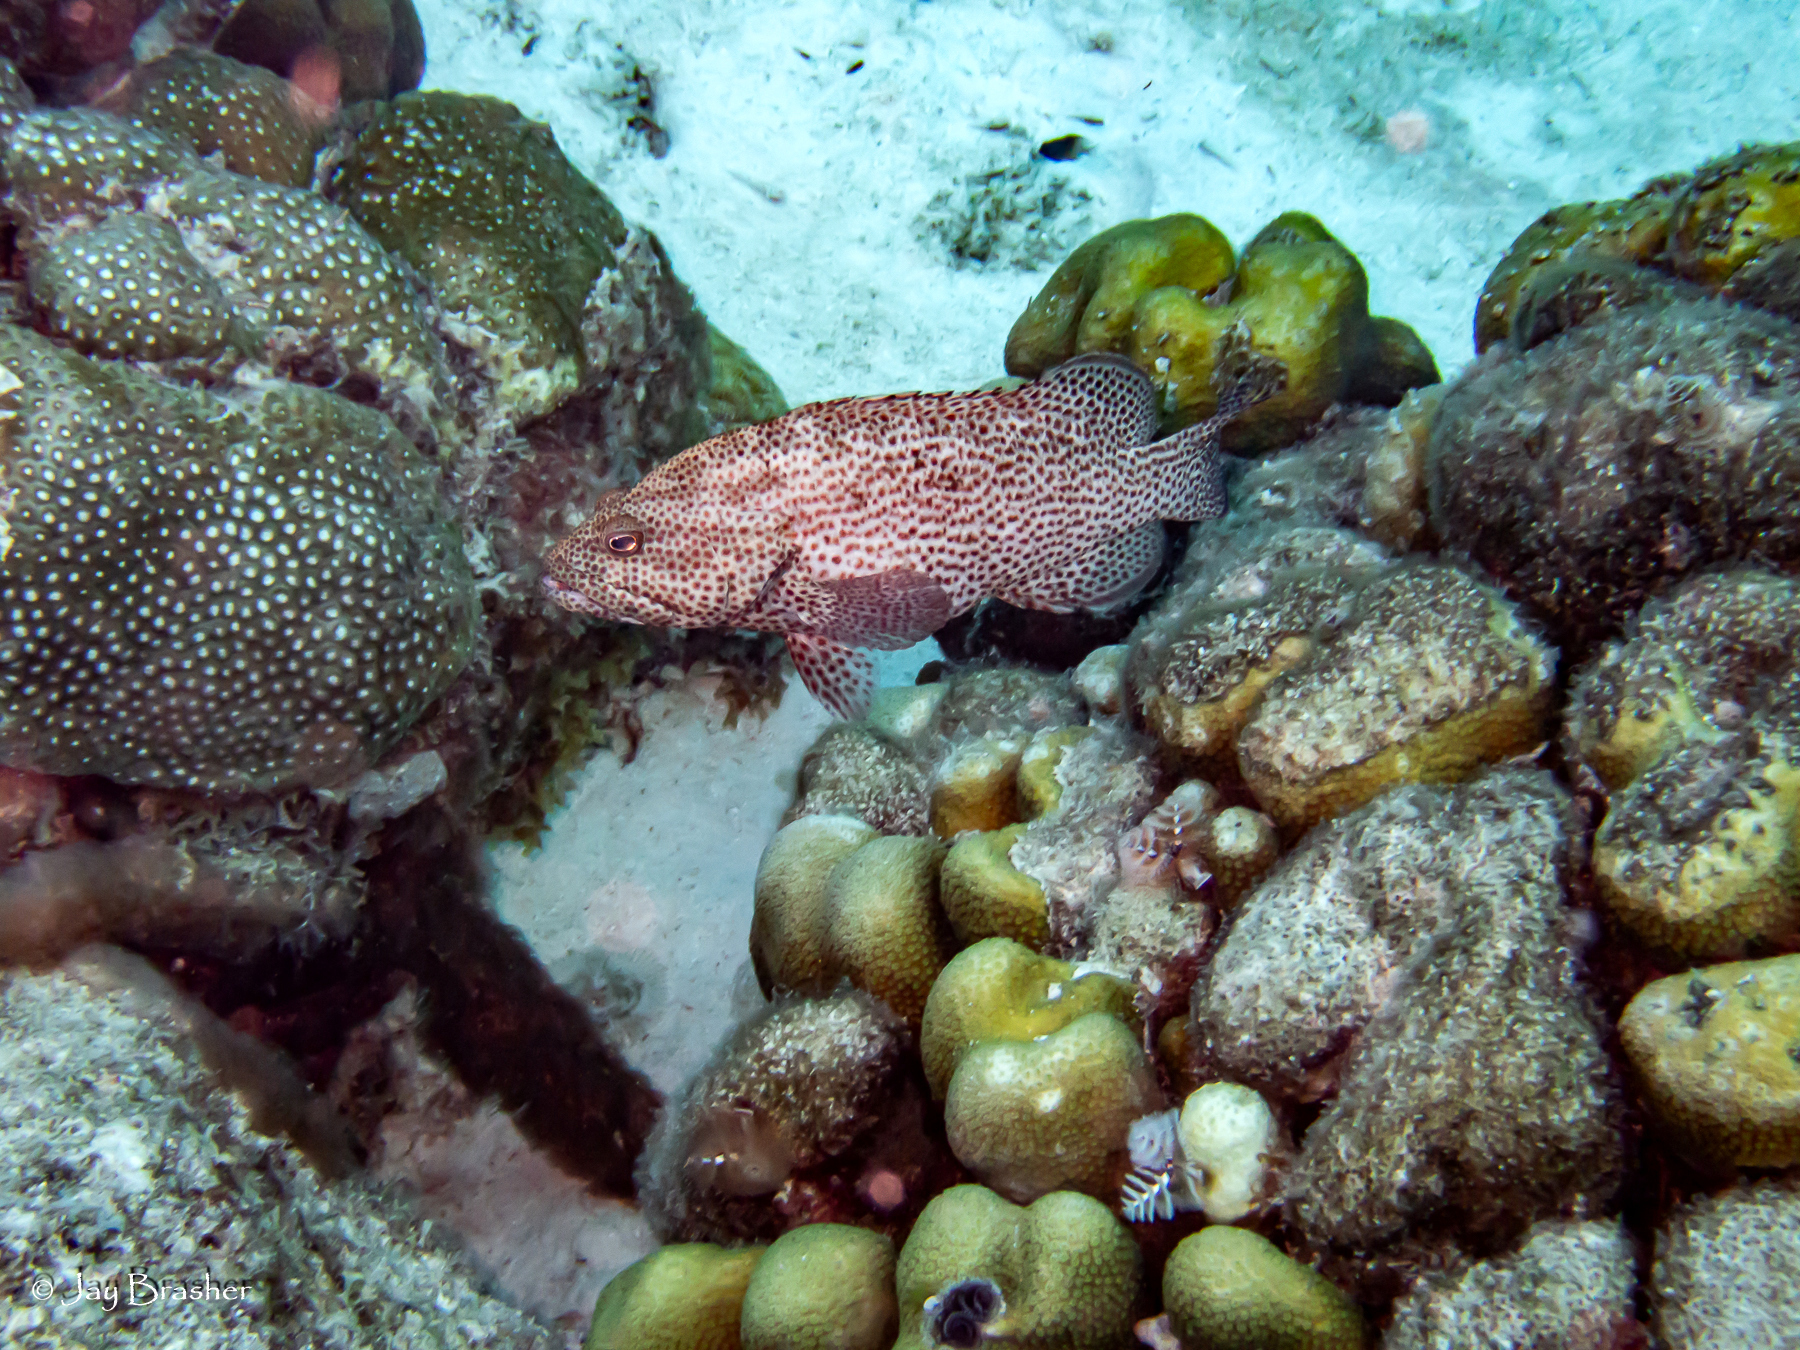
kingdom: Animalia
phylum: Cnidaria
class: Anthozoa
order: Scleractinia
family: Merulinidae
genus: Orbicella
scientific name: Orbicella annularis
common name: Boulder star coral
